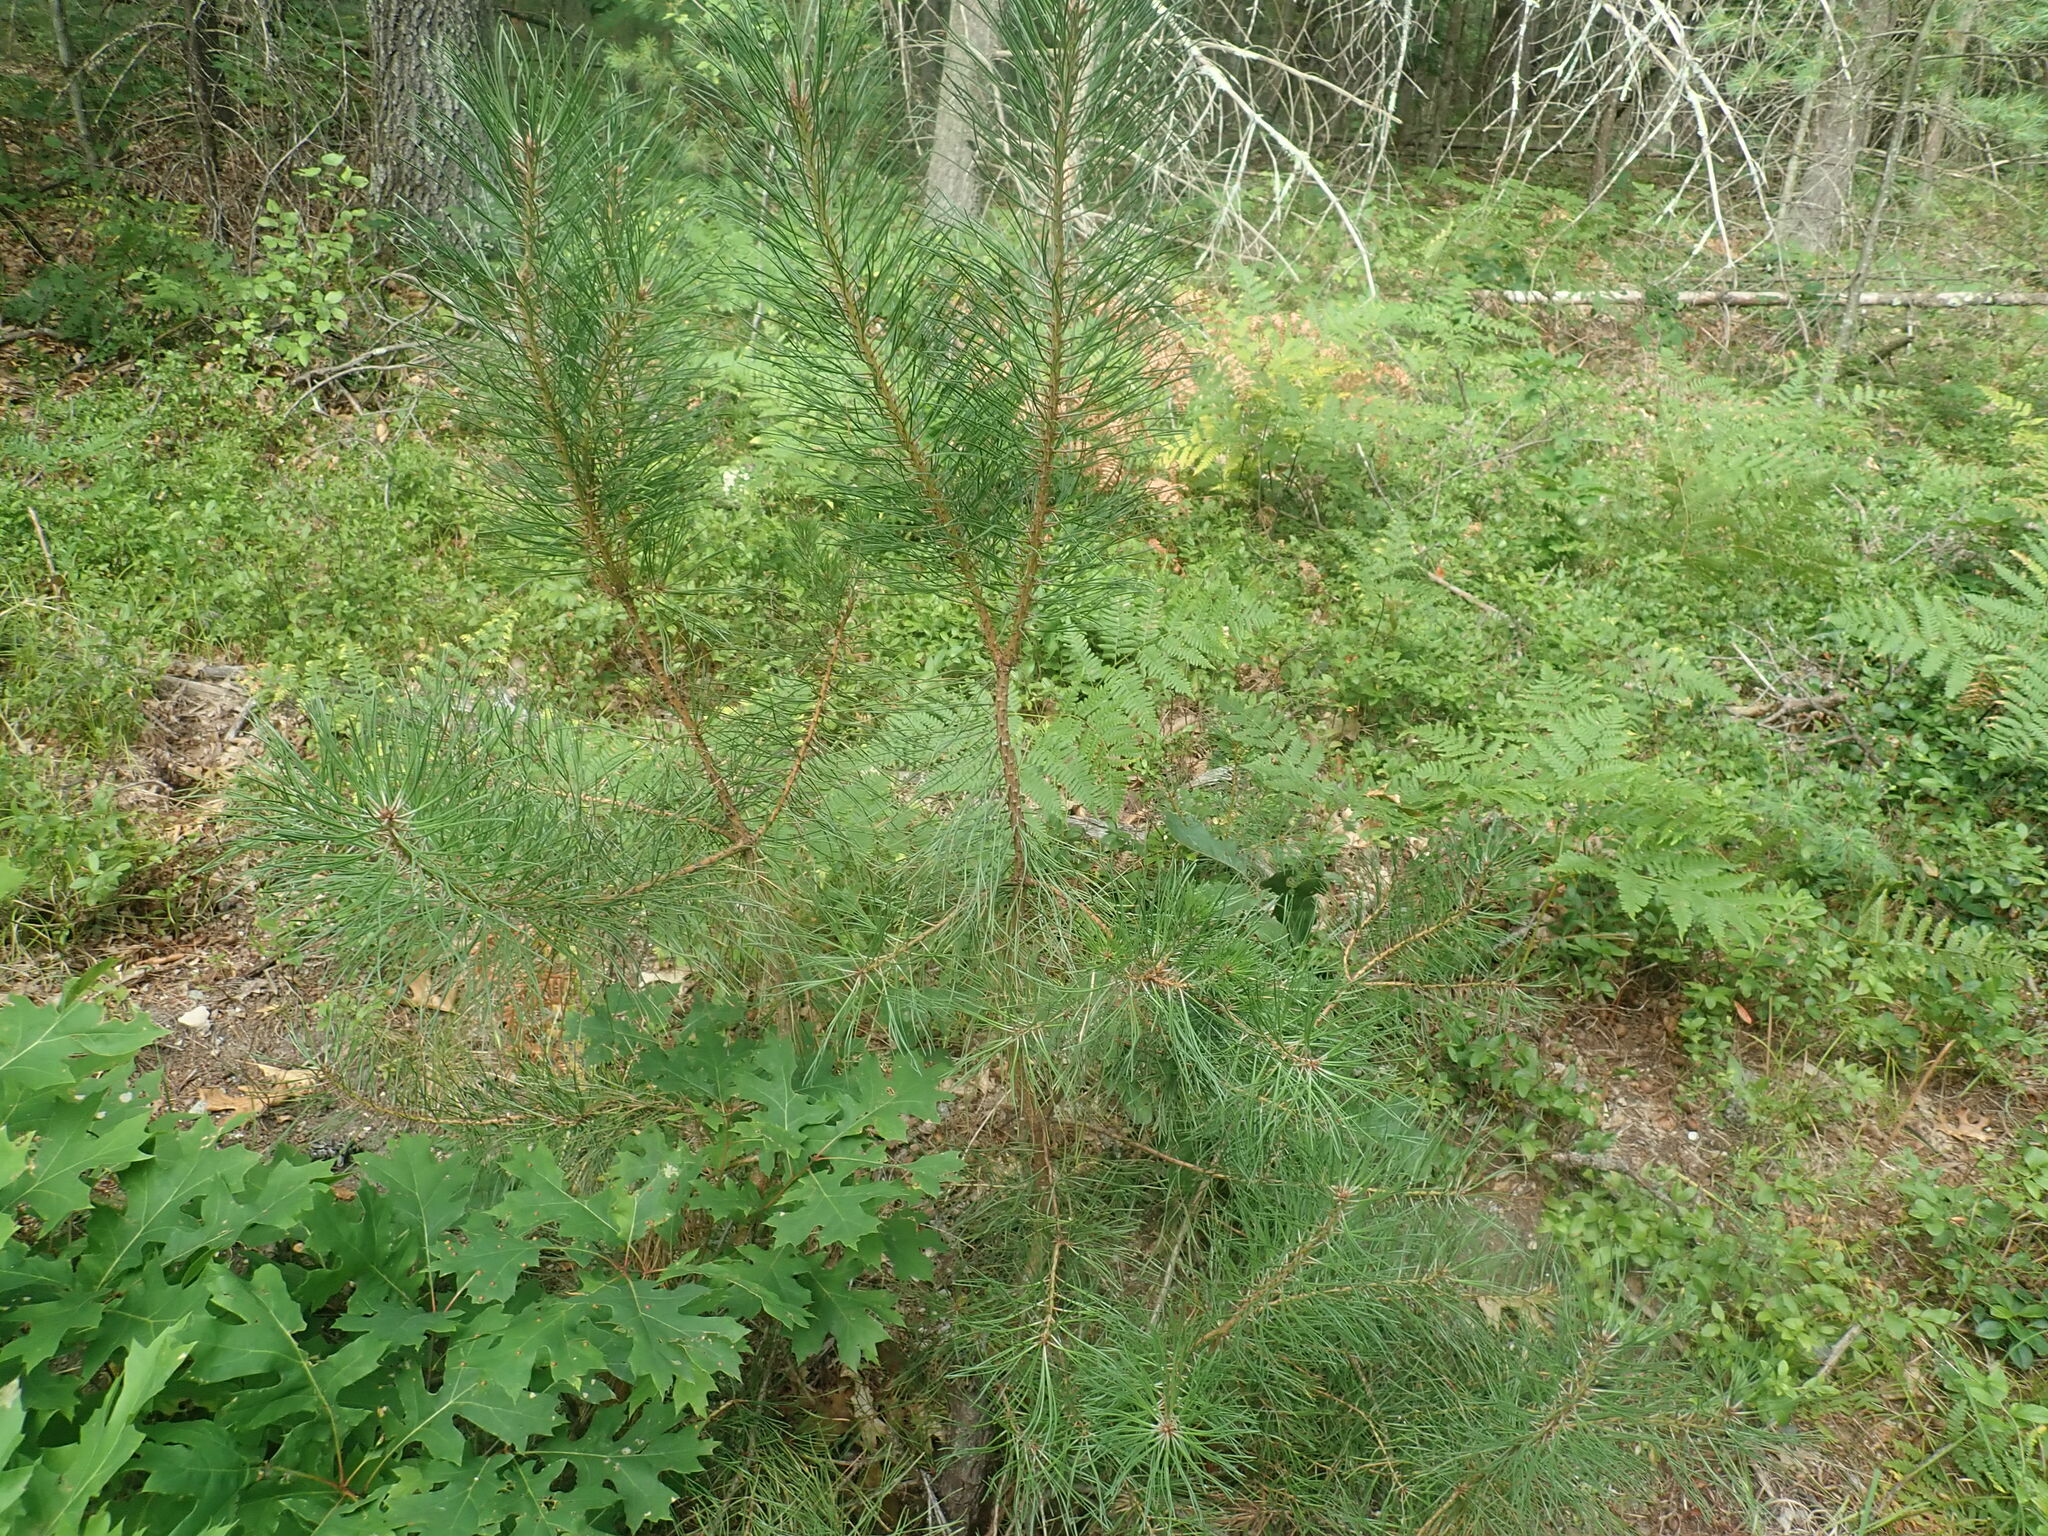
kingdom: Plantae
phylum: Tracheophyta
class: Pinopsida
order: Pinales
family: Pinaceae
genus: Pinus
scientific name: Pinus rigida
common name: Pitch pine
